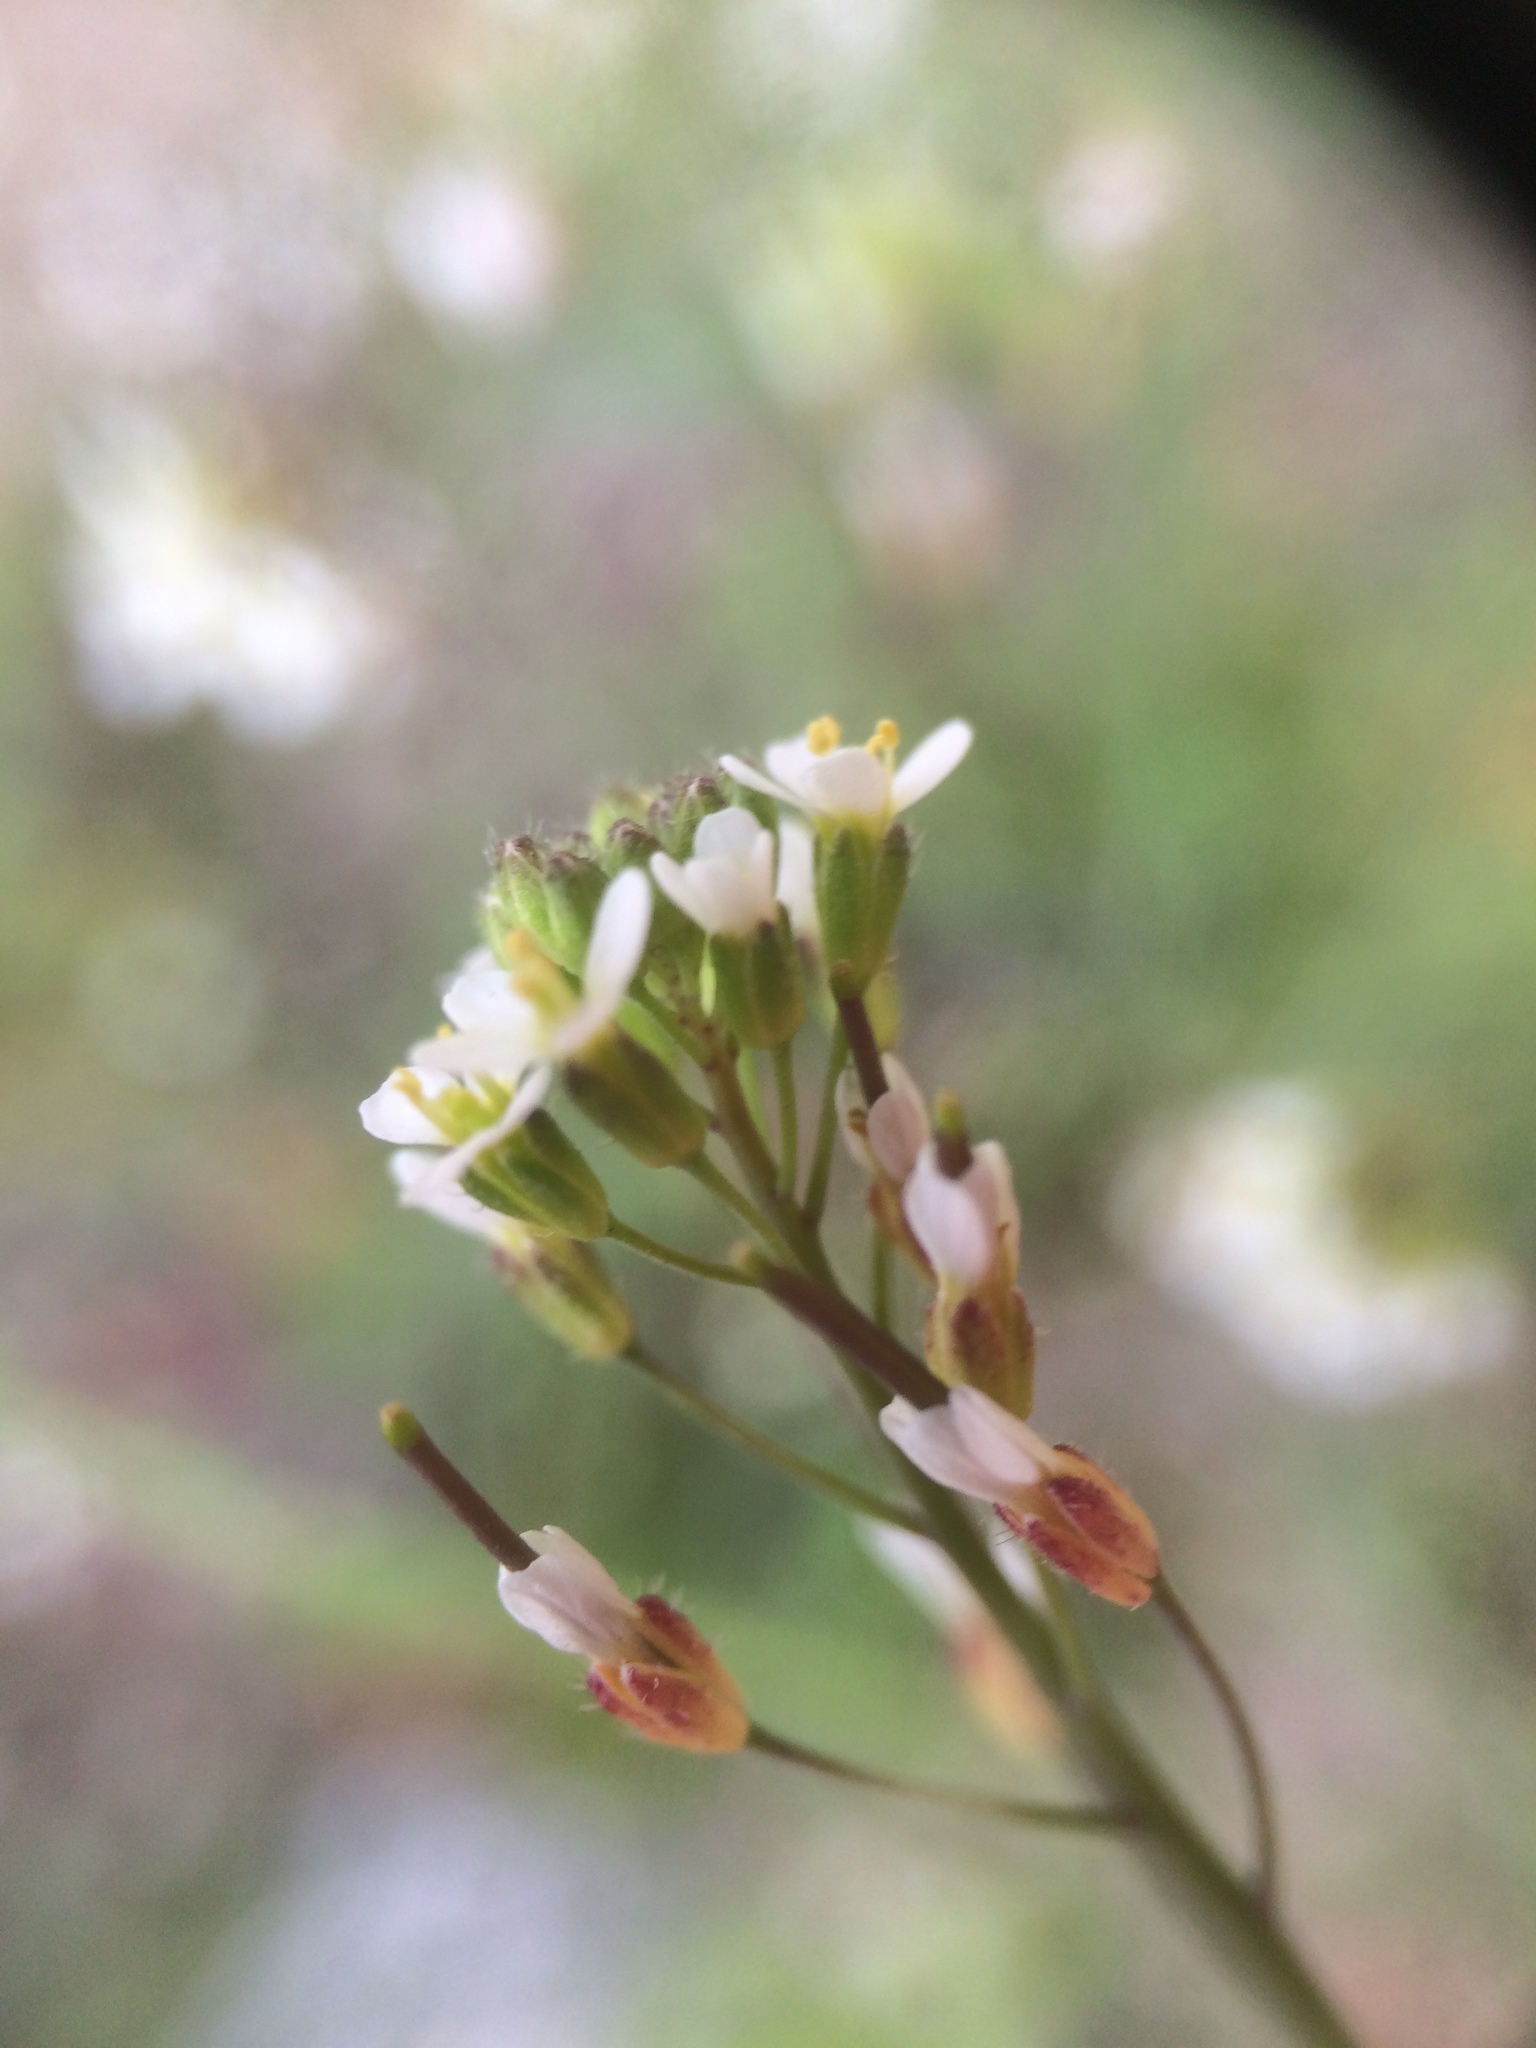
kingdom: Plantae
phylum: Tracheophyta
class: Magnoliopsida
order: Brassicales
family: Brassicaceae
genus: Arabidopsis
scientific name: Arabidopsis thaliana
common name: Thale cress
